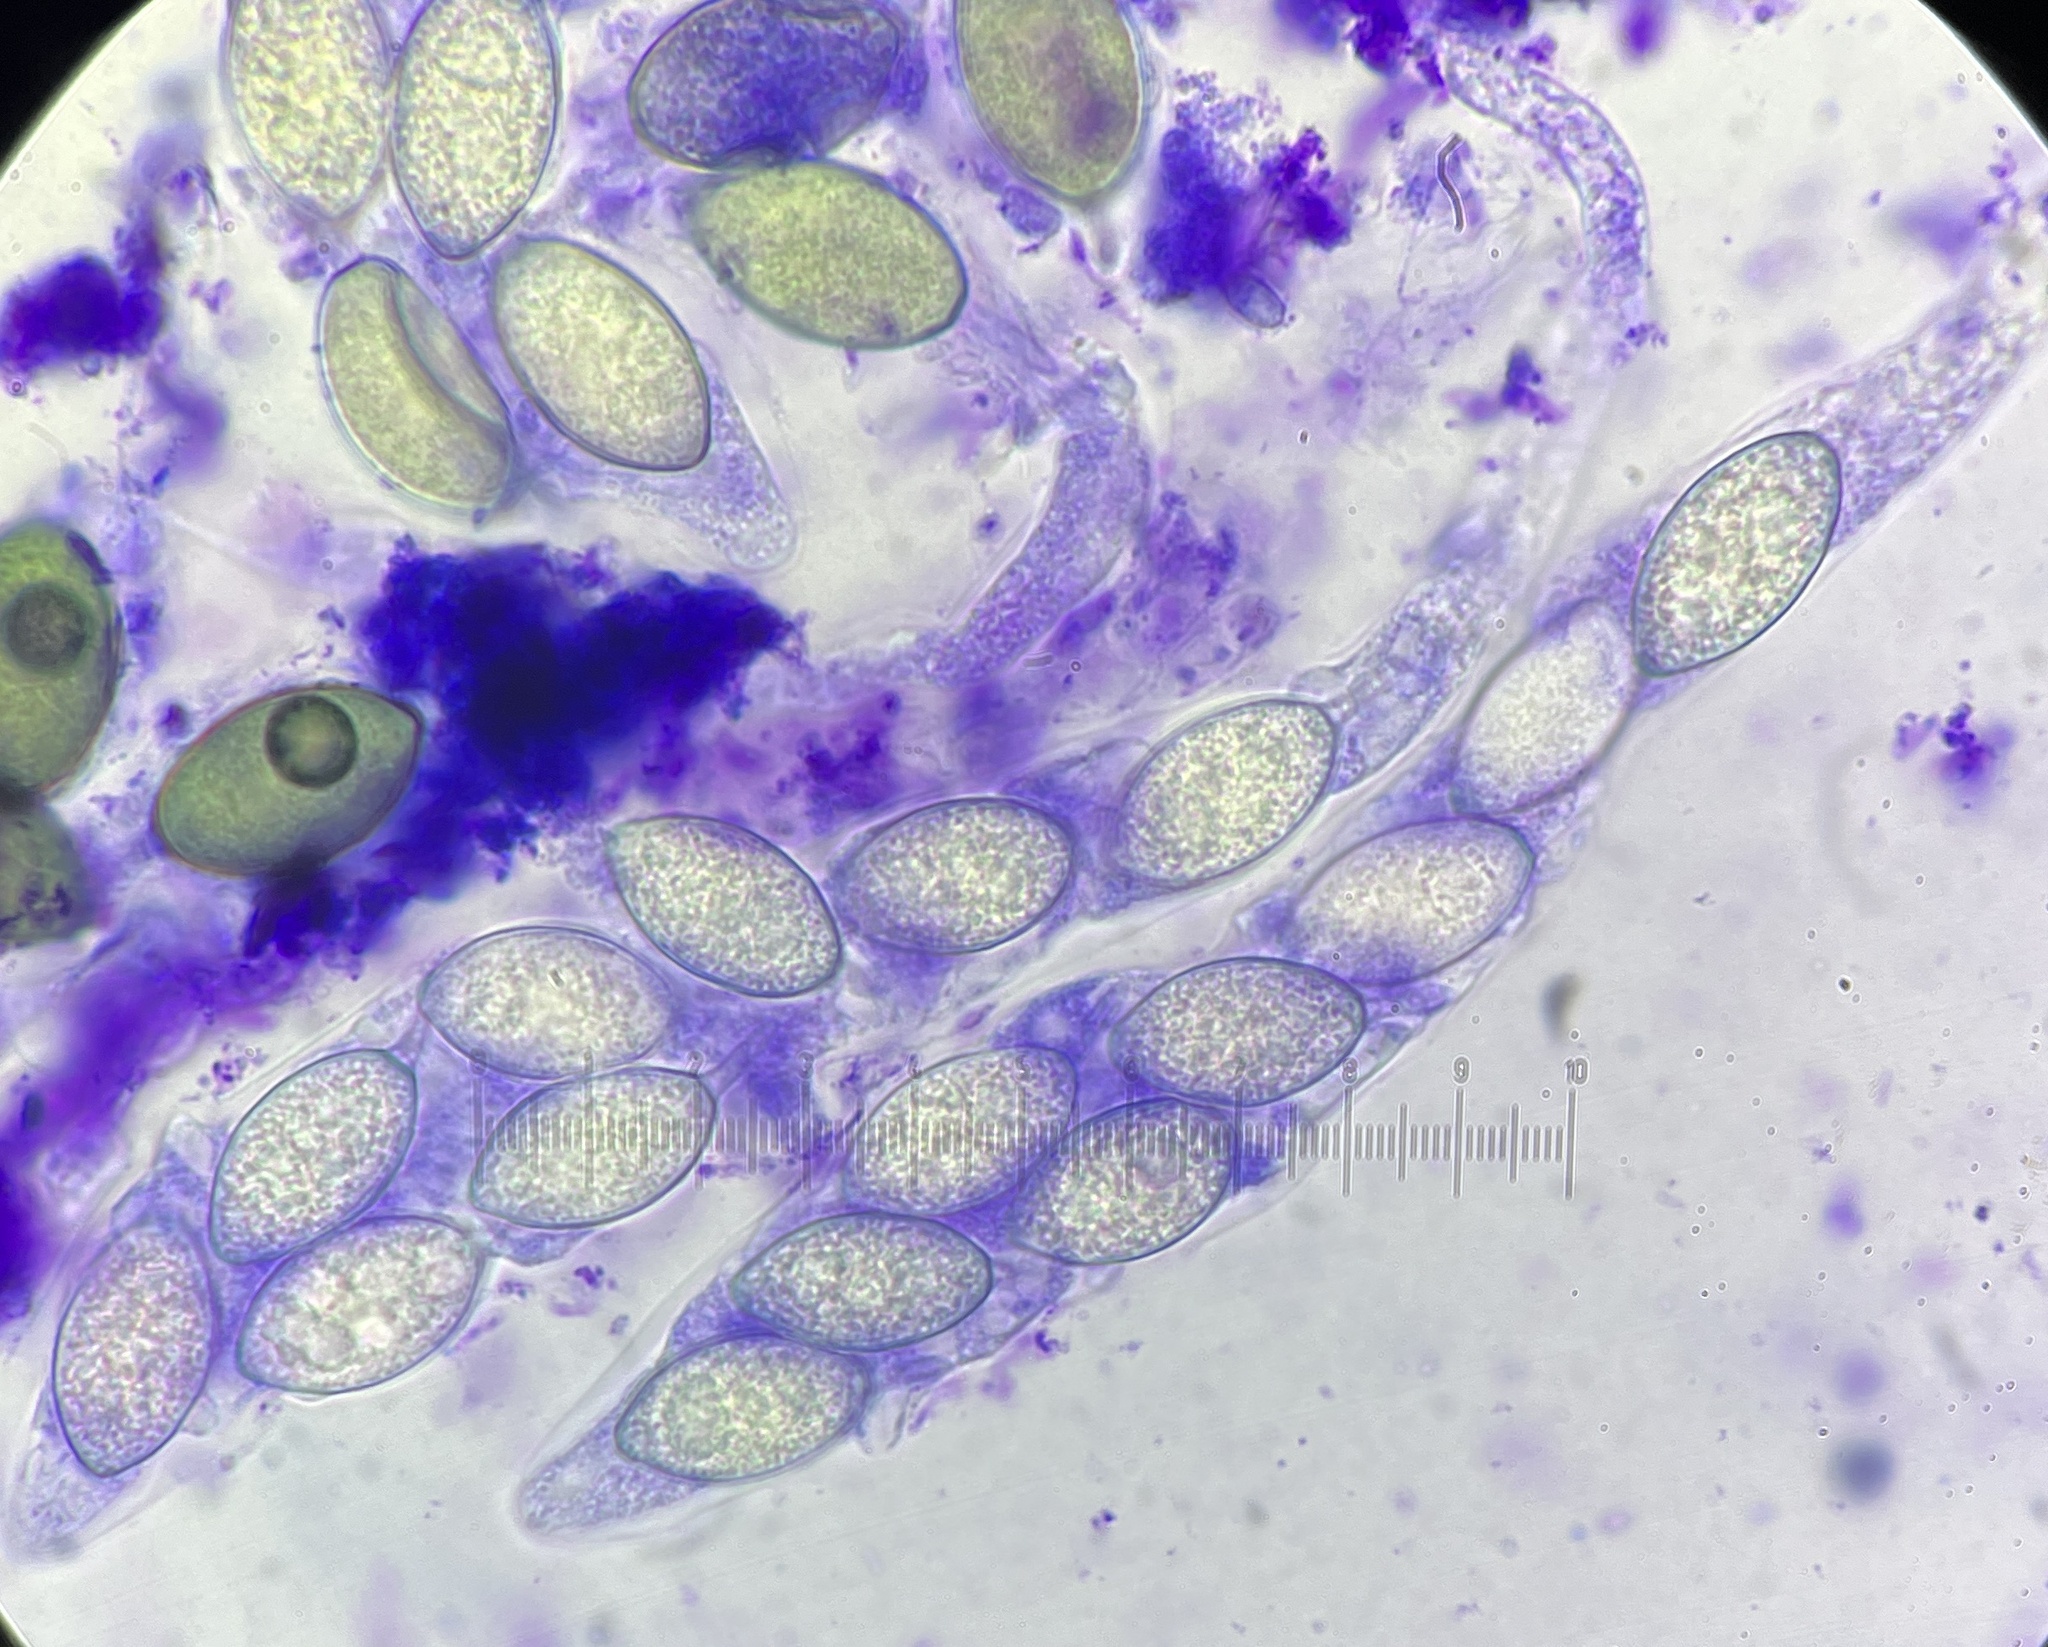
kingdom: Fungi
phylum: Ascomycota
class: Sordariomycetes
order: Sordariales
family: Neoschizotheciaceae
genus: Neoschizothecium
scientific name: Neoschizothecium conicum
